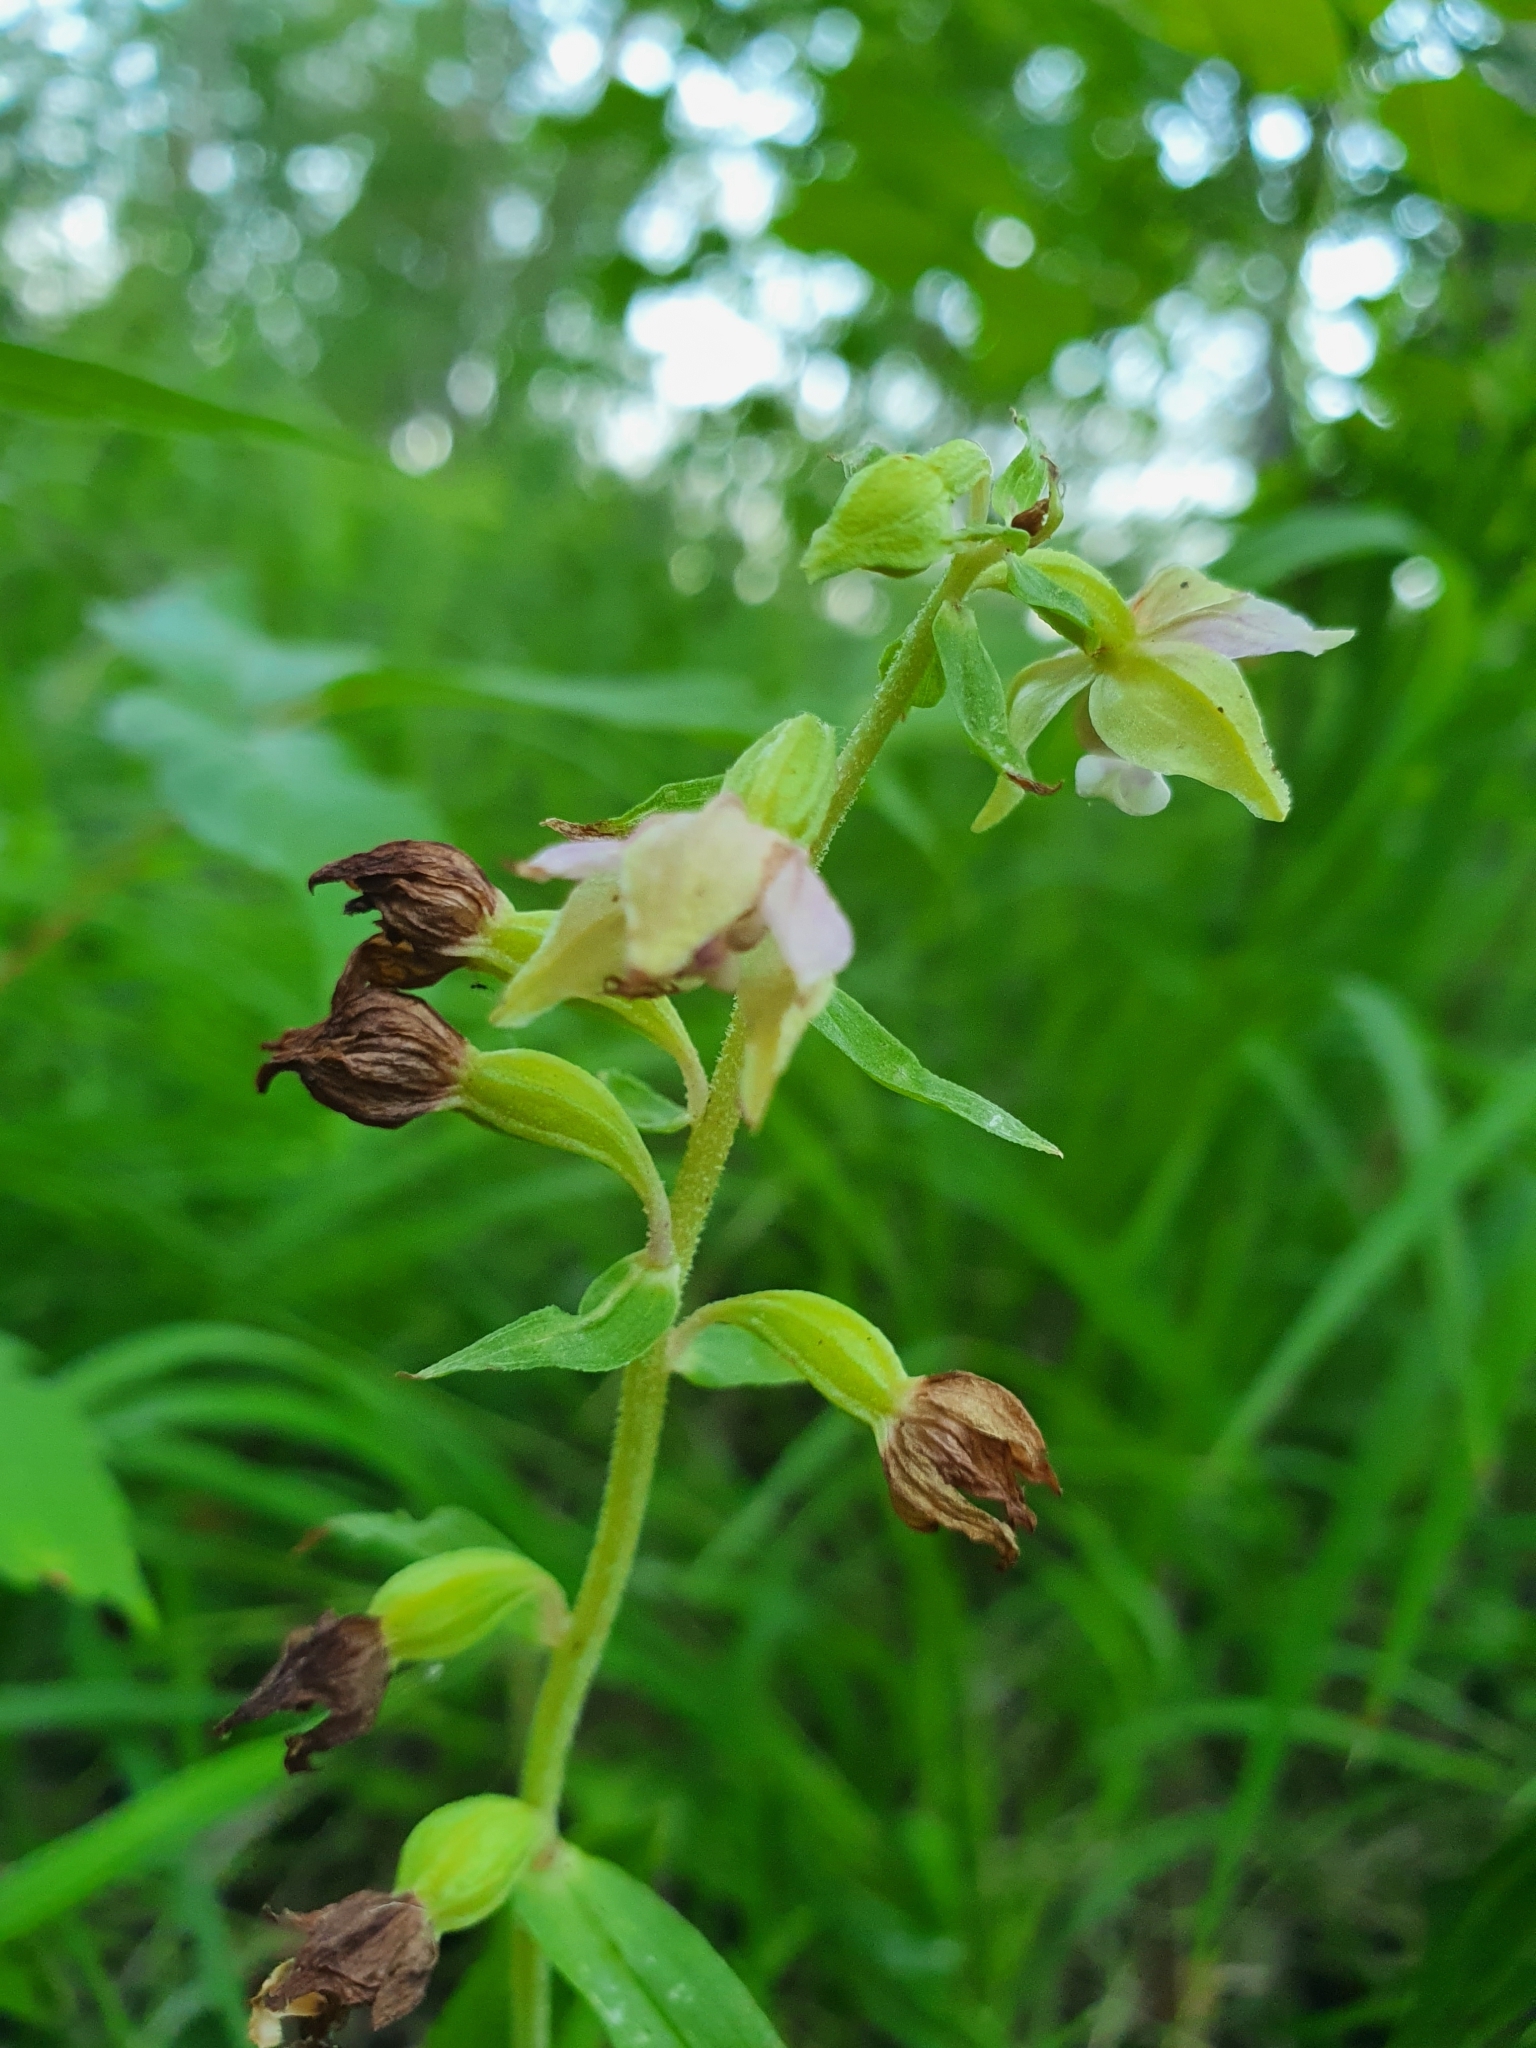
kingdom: Plantae
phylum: Tracheophyta
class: Liliopsida
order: Asparagales
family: Orchidaceae
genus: Epipactis
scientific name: Epipactis helleborine
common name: Broad-leaved helleborine
